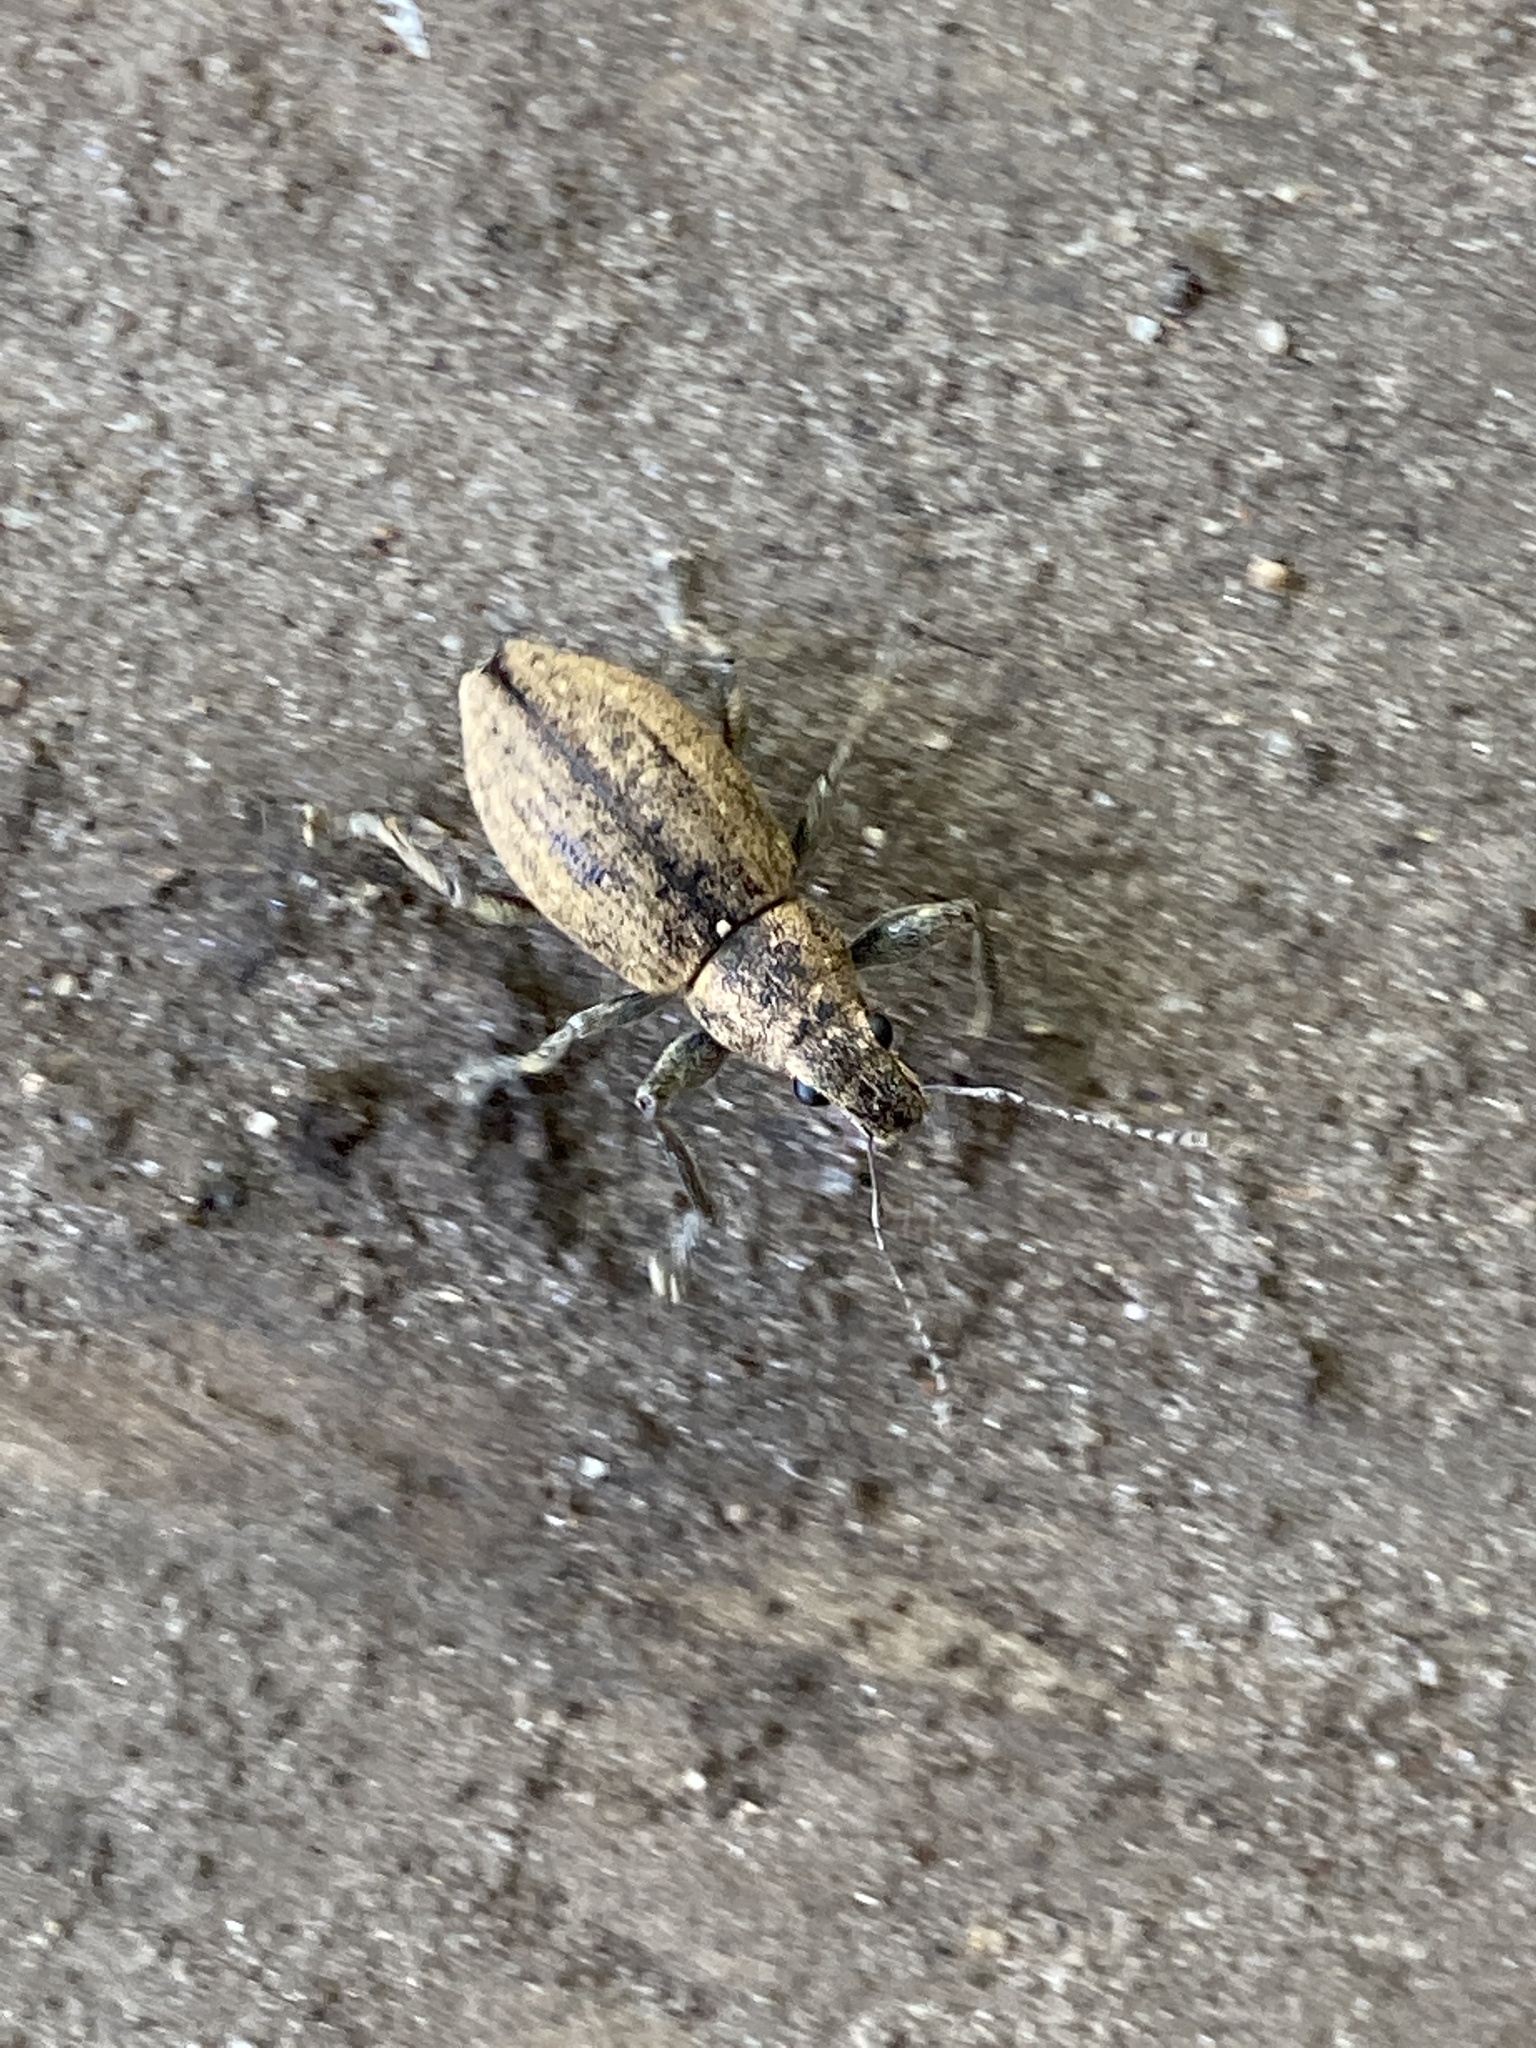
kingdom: Animalia
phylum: Arthropoda
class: Insecta
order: Coleoptera
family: Curculionidae
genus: Naupactus
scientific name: Naupactus versatilis
